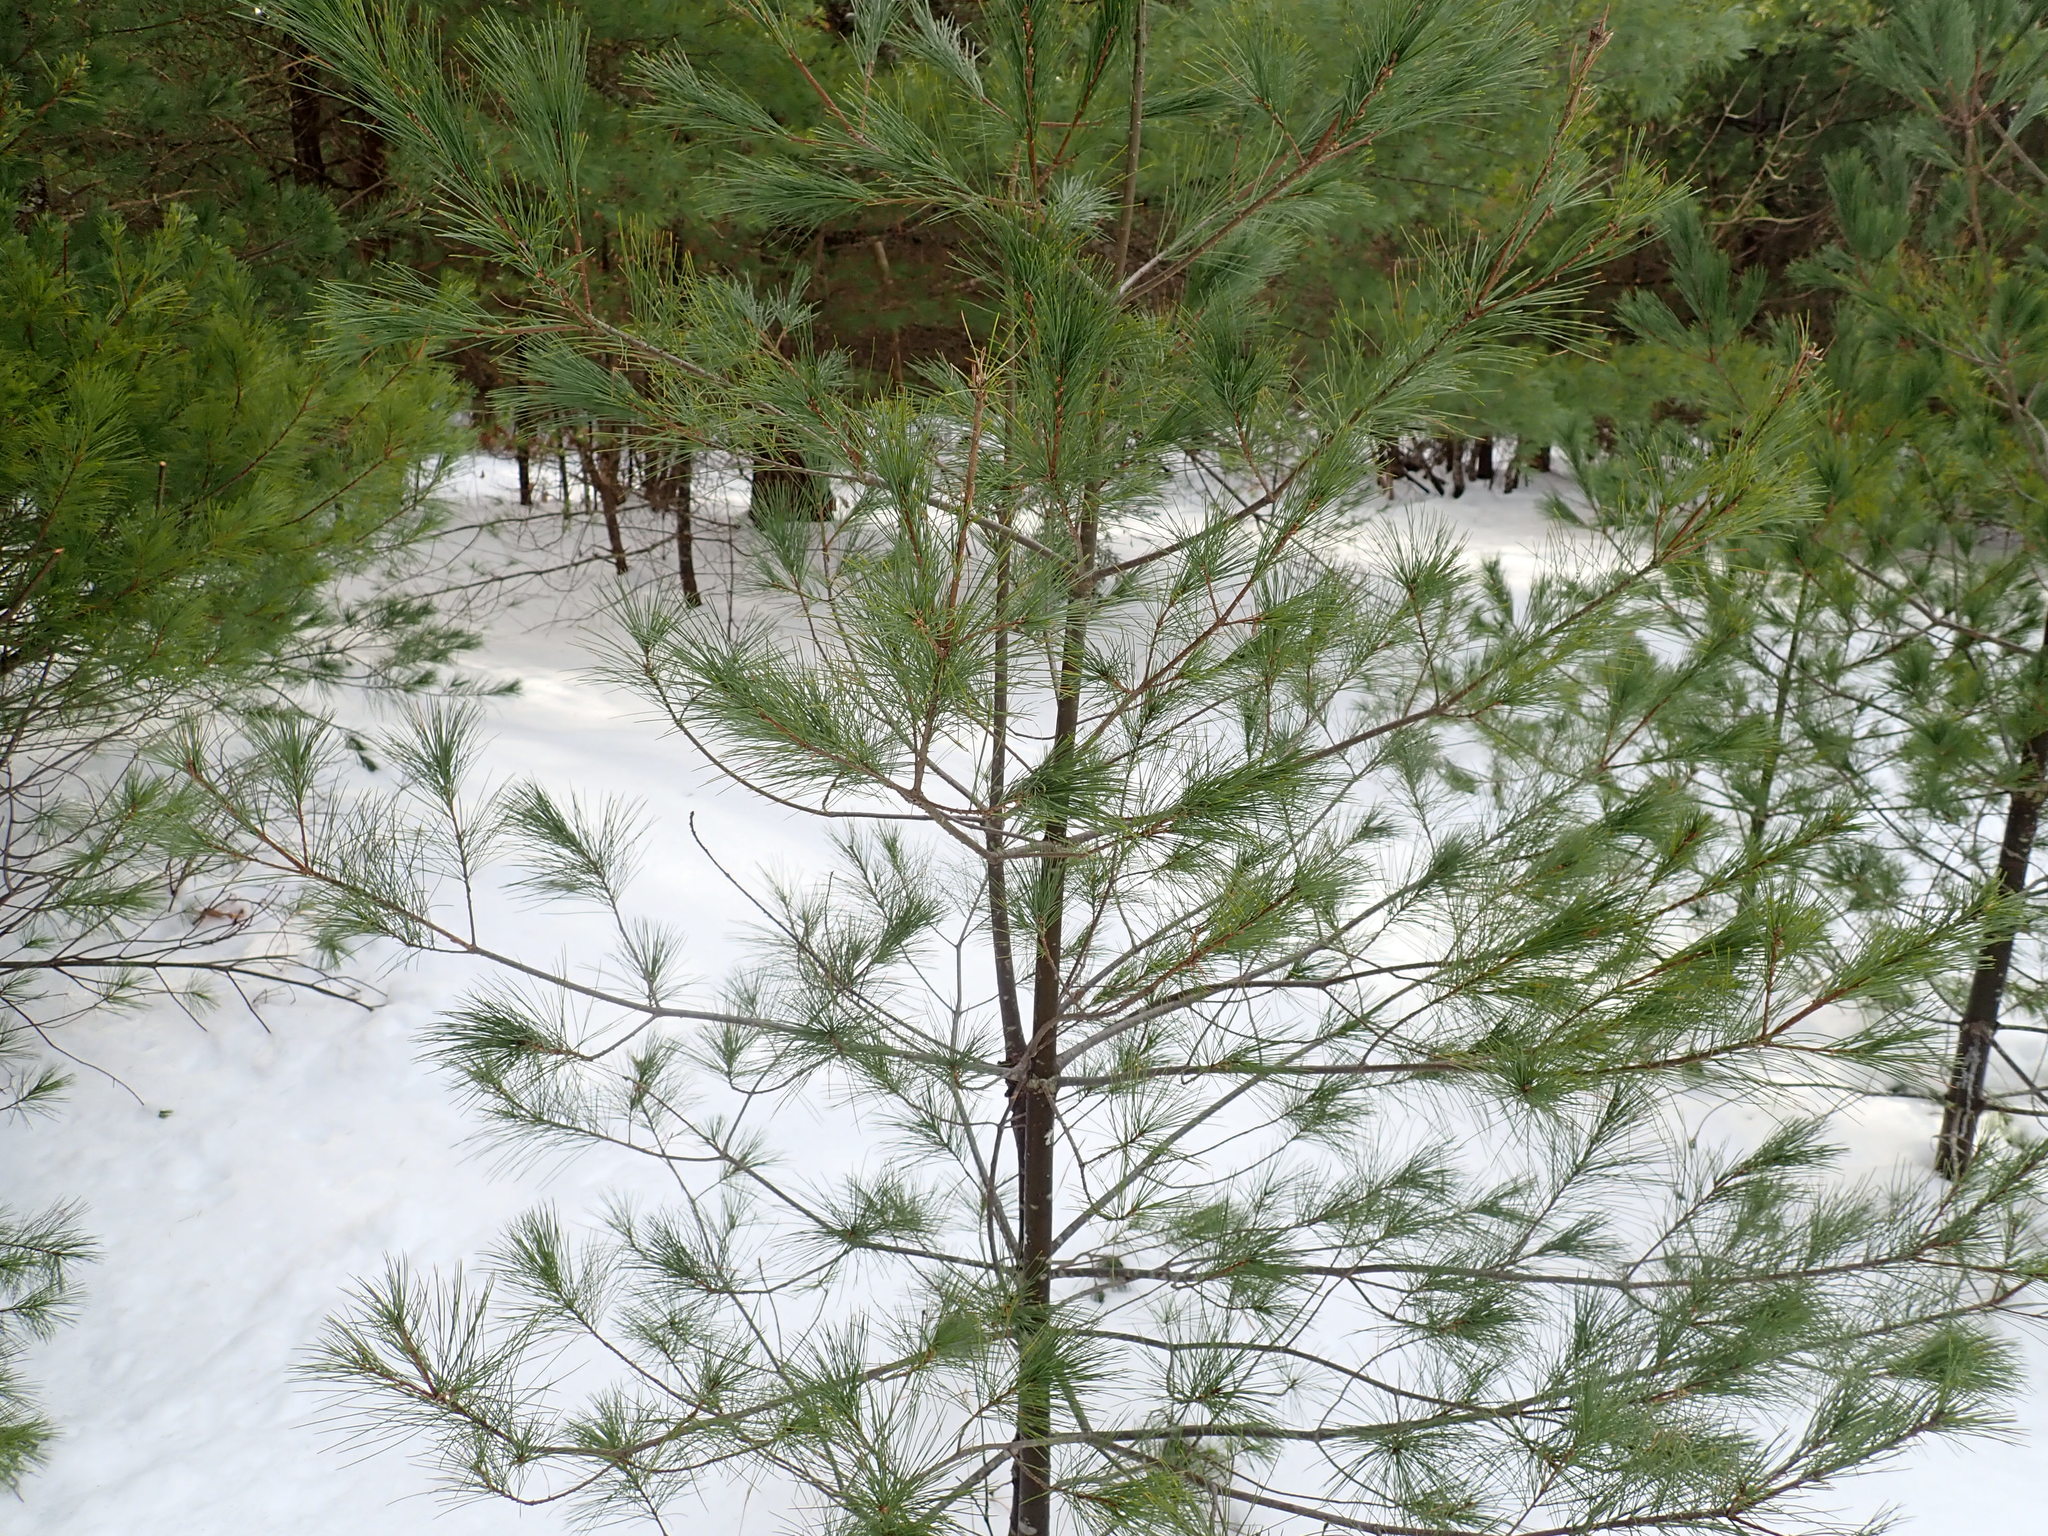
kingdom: Plantae
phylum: Tracheophyta
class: Pinopsida
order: Pinales
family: Pinaceae
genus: Pinus
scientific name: Pinus strobus
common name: Weymouth pine
